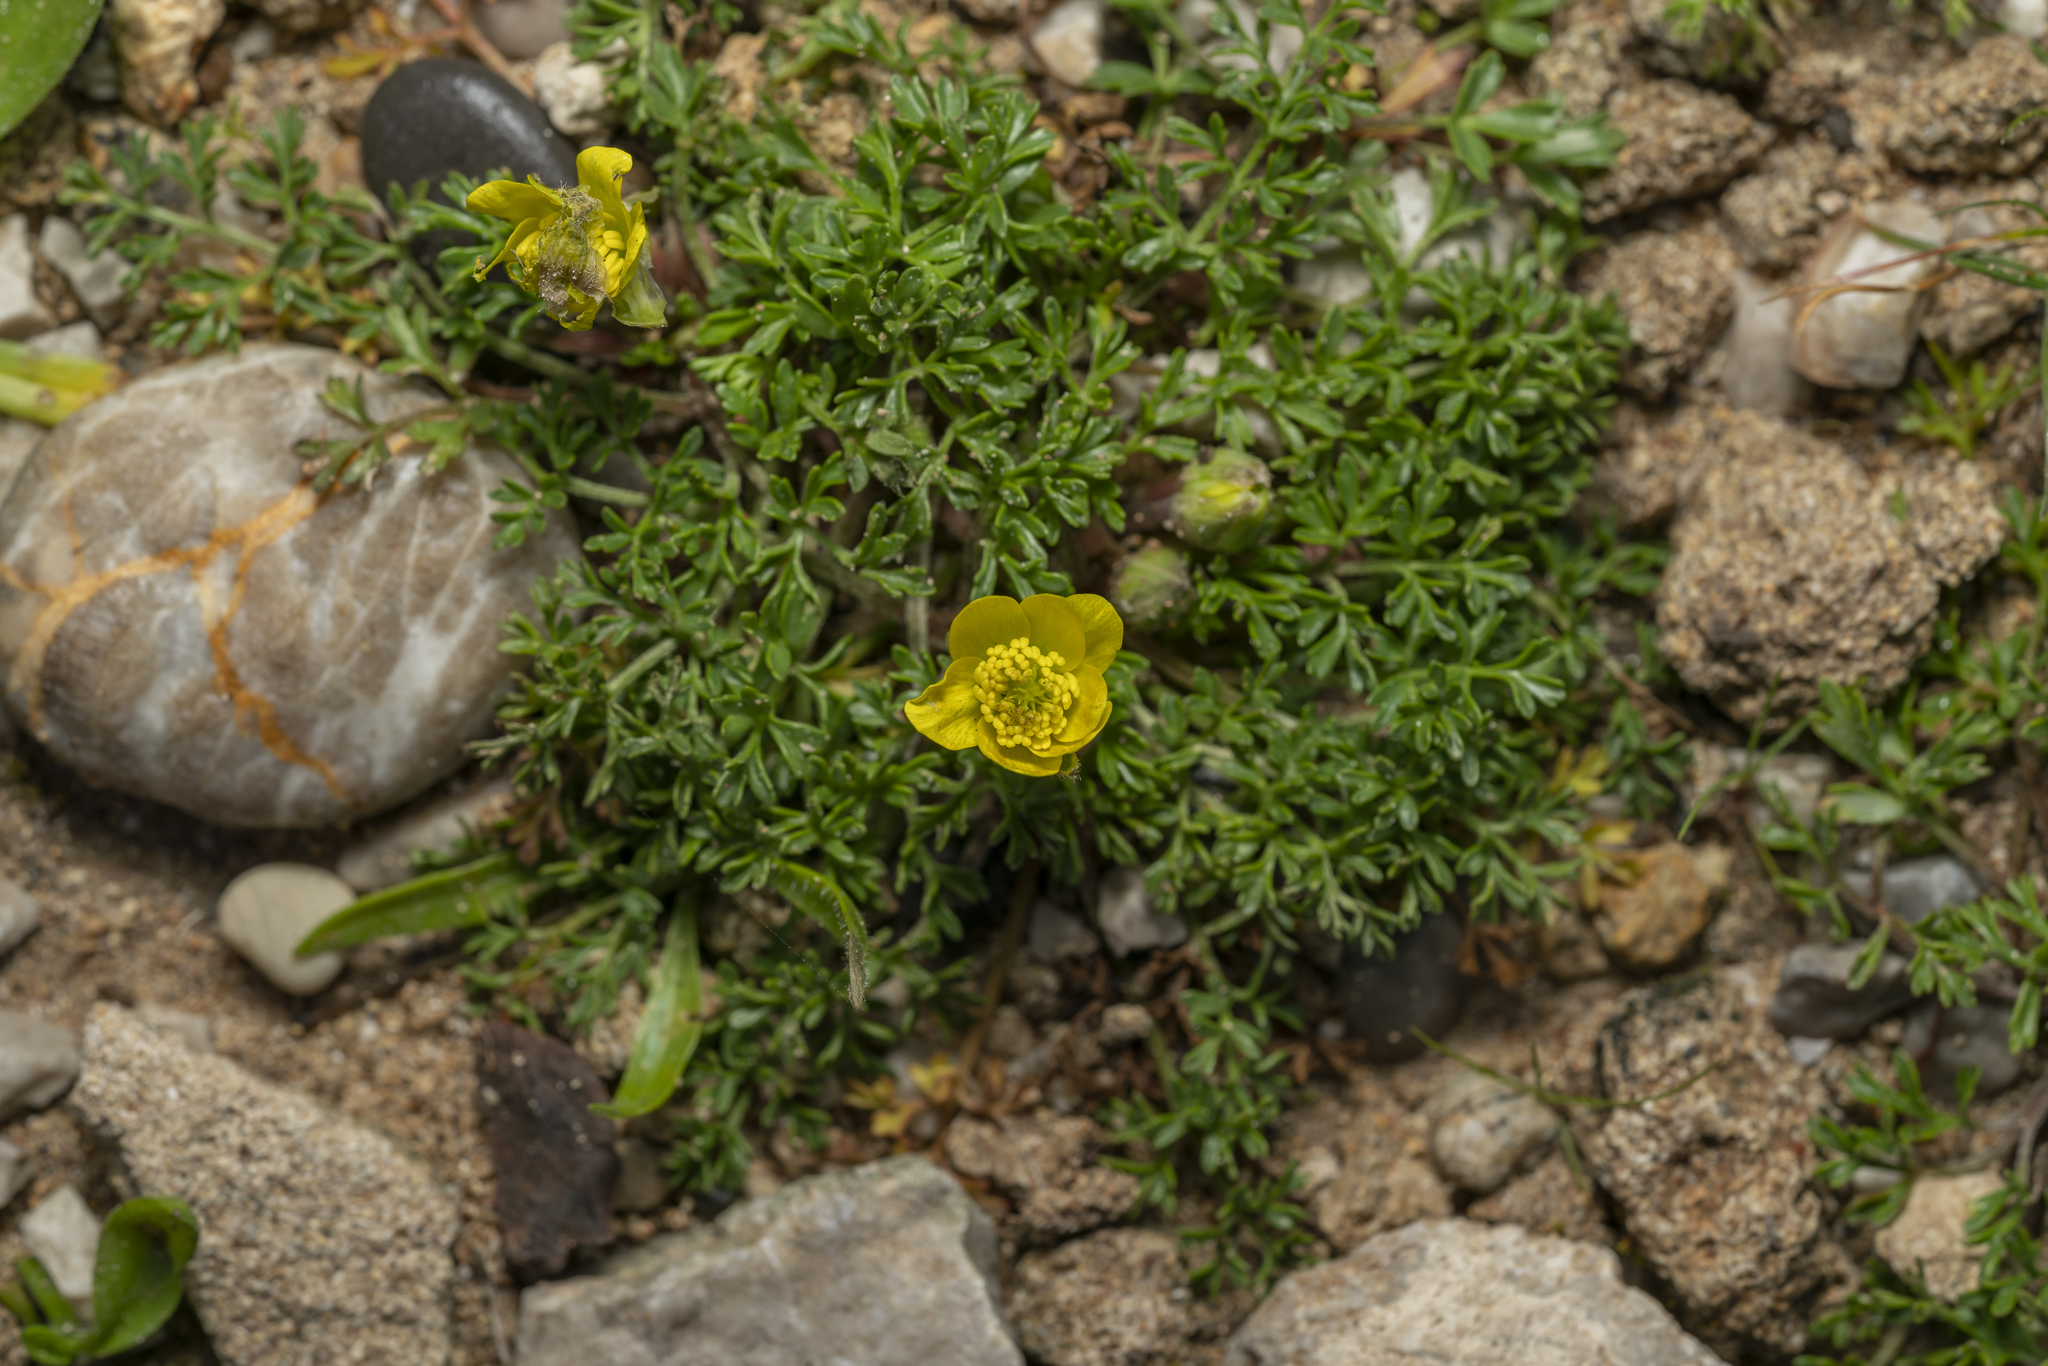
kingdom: Plantae
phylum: Tracheophyta
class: Magnoliopsida
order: Ranunculales
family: Ranunculaceae
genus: Ranunculus
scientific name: Ranunculus isthmicus
